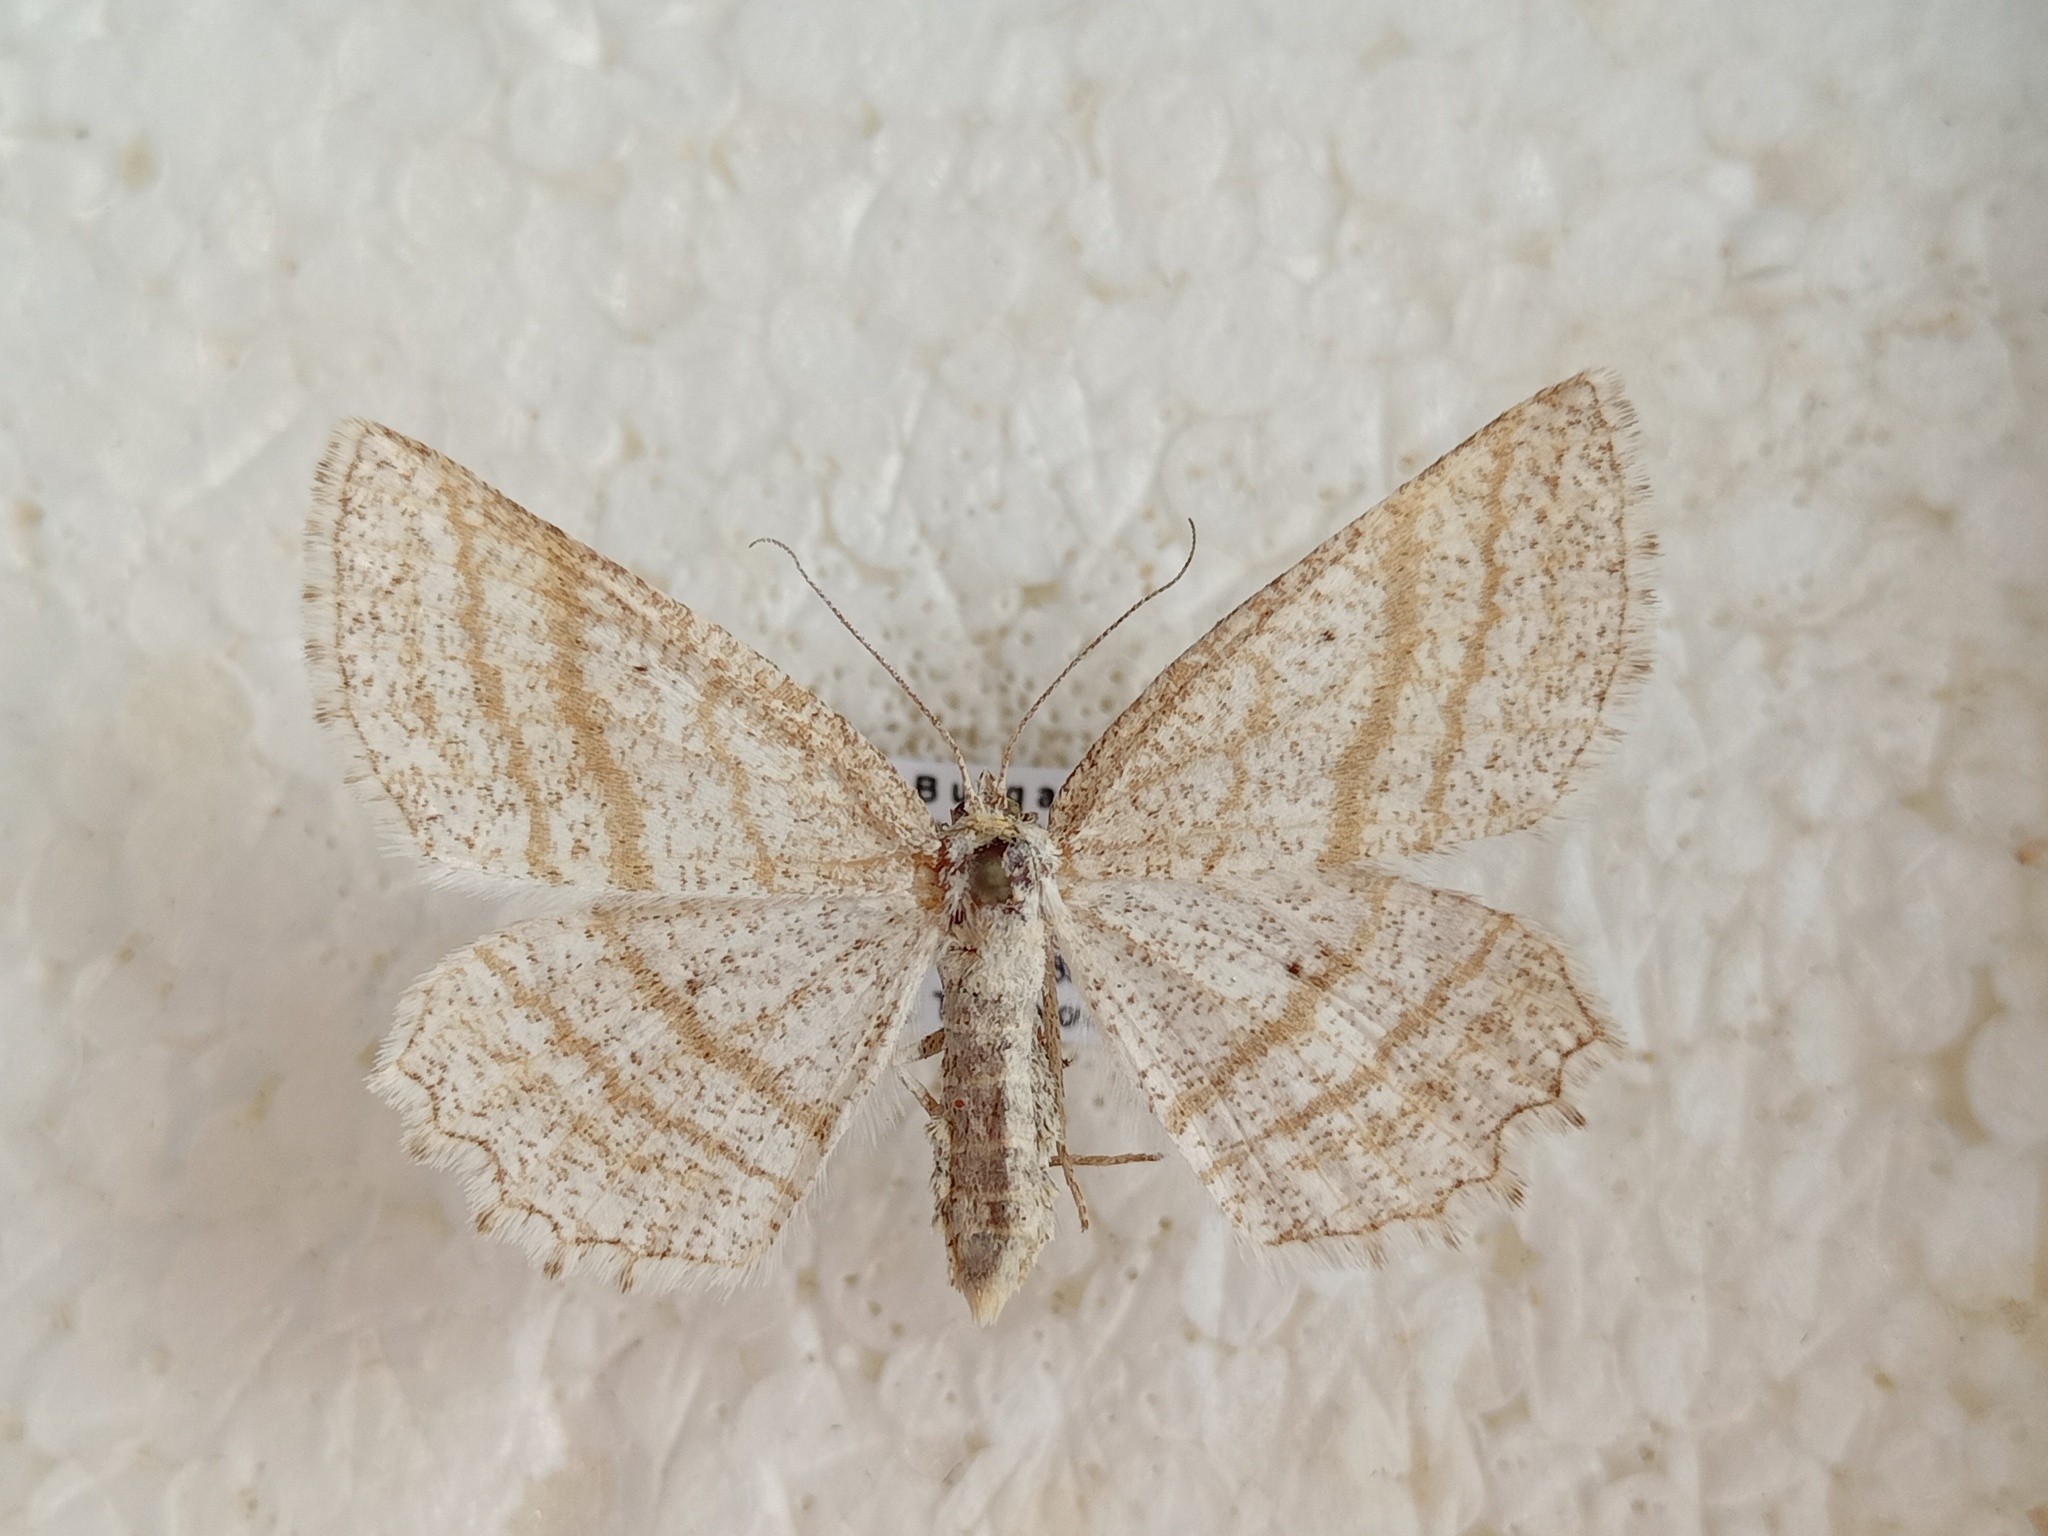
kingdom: Animalia
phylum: Arthropoda
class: Insecta
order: Lepidoptera
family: Geometridae
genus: Perconia
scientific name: Perconia strigillaria
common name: Grass wave
